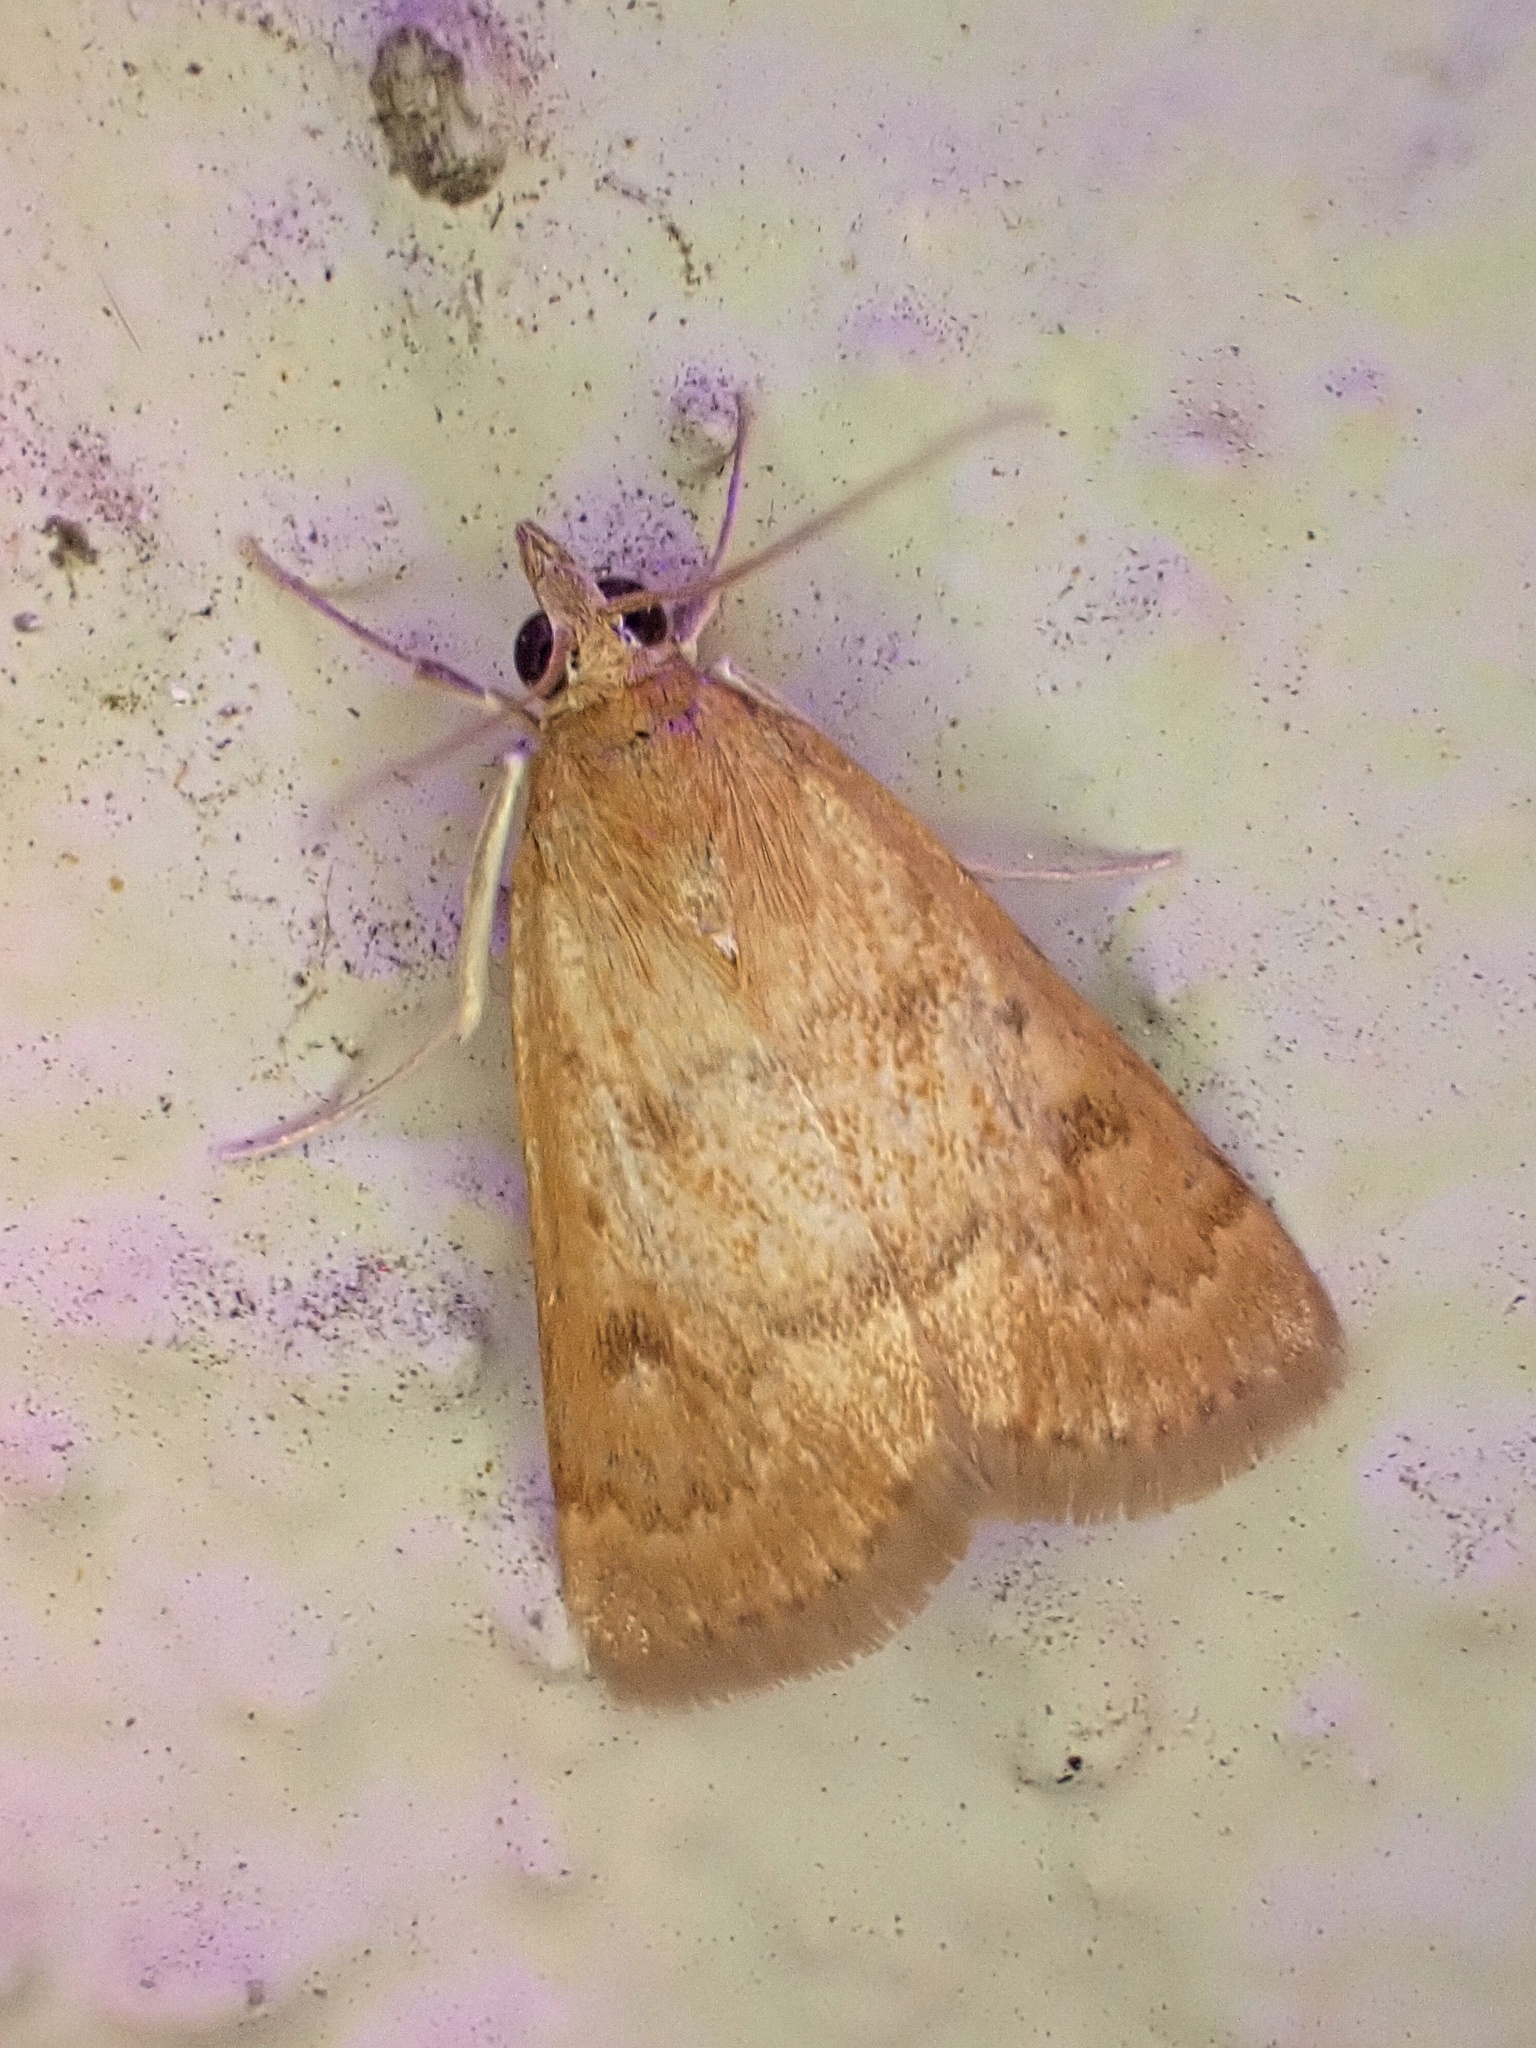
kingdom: Animalia
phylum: Arthropoda
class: Insecta
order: Lepidoptera
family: Crambidae
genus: Achyra
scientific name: Achyra rantalis
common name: Garden webworm
